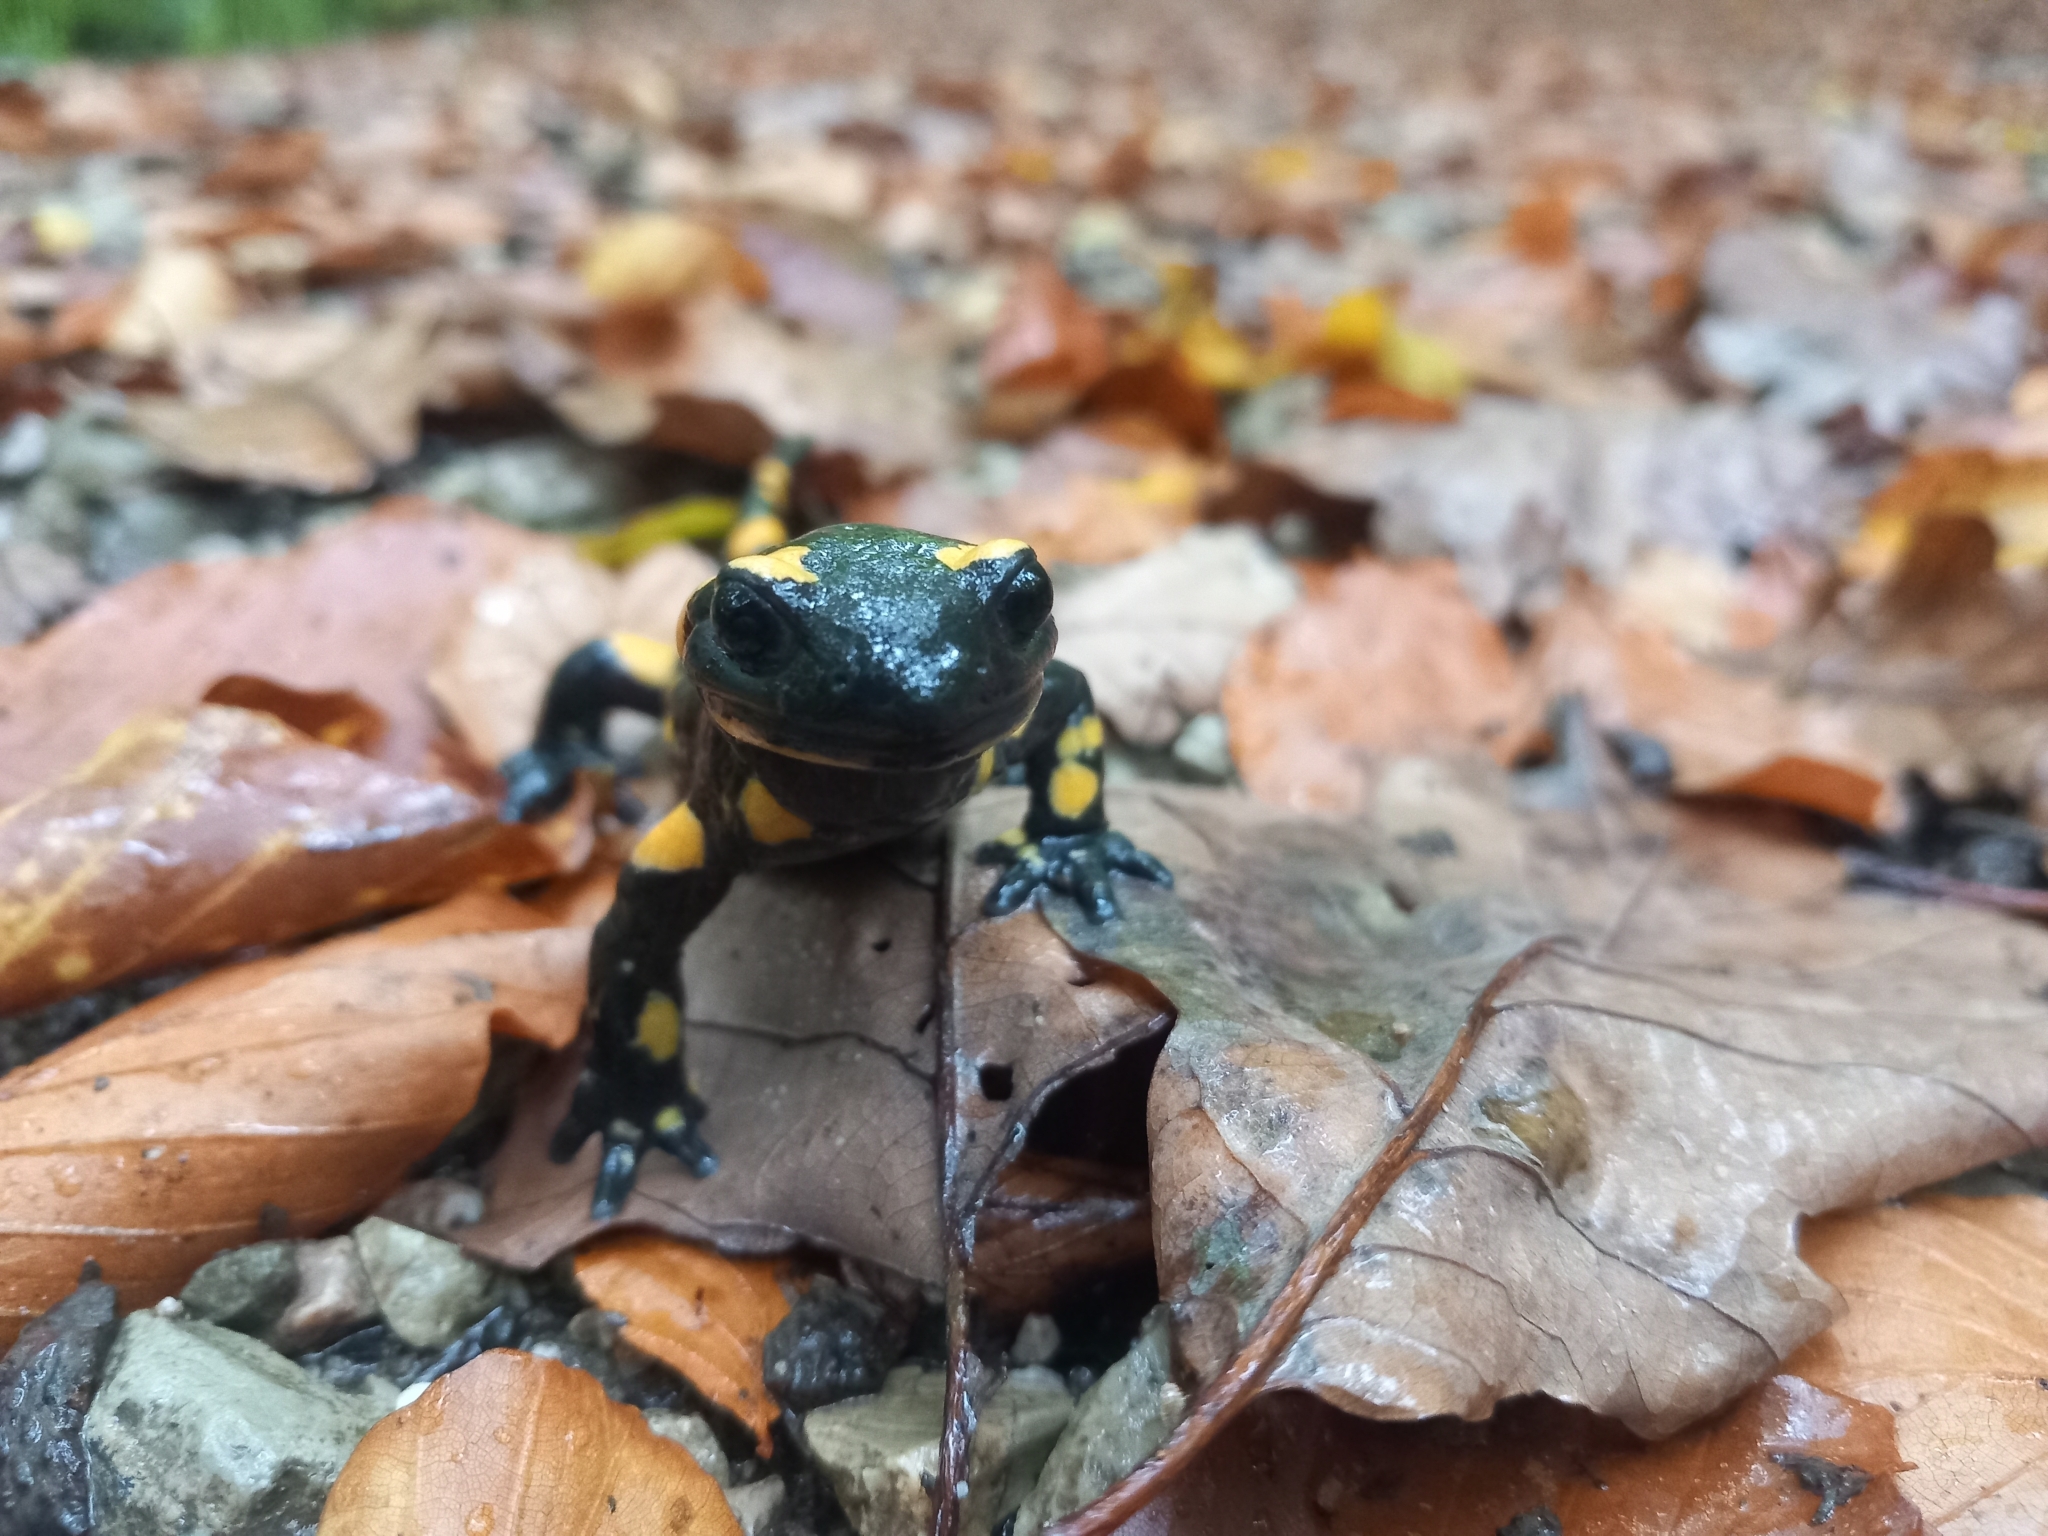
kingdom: Animalia
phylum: Chordata
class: Amphibia
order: Caudata
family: Salamandridae
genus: Salamandra
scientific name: Salamandra salamandra
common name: Fire salamander
